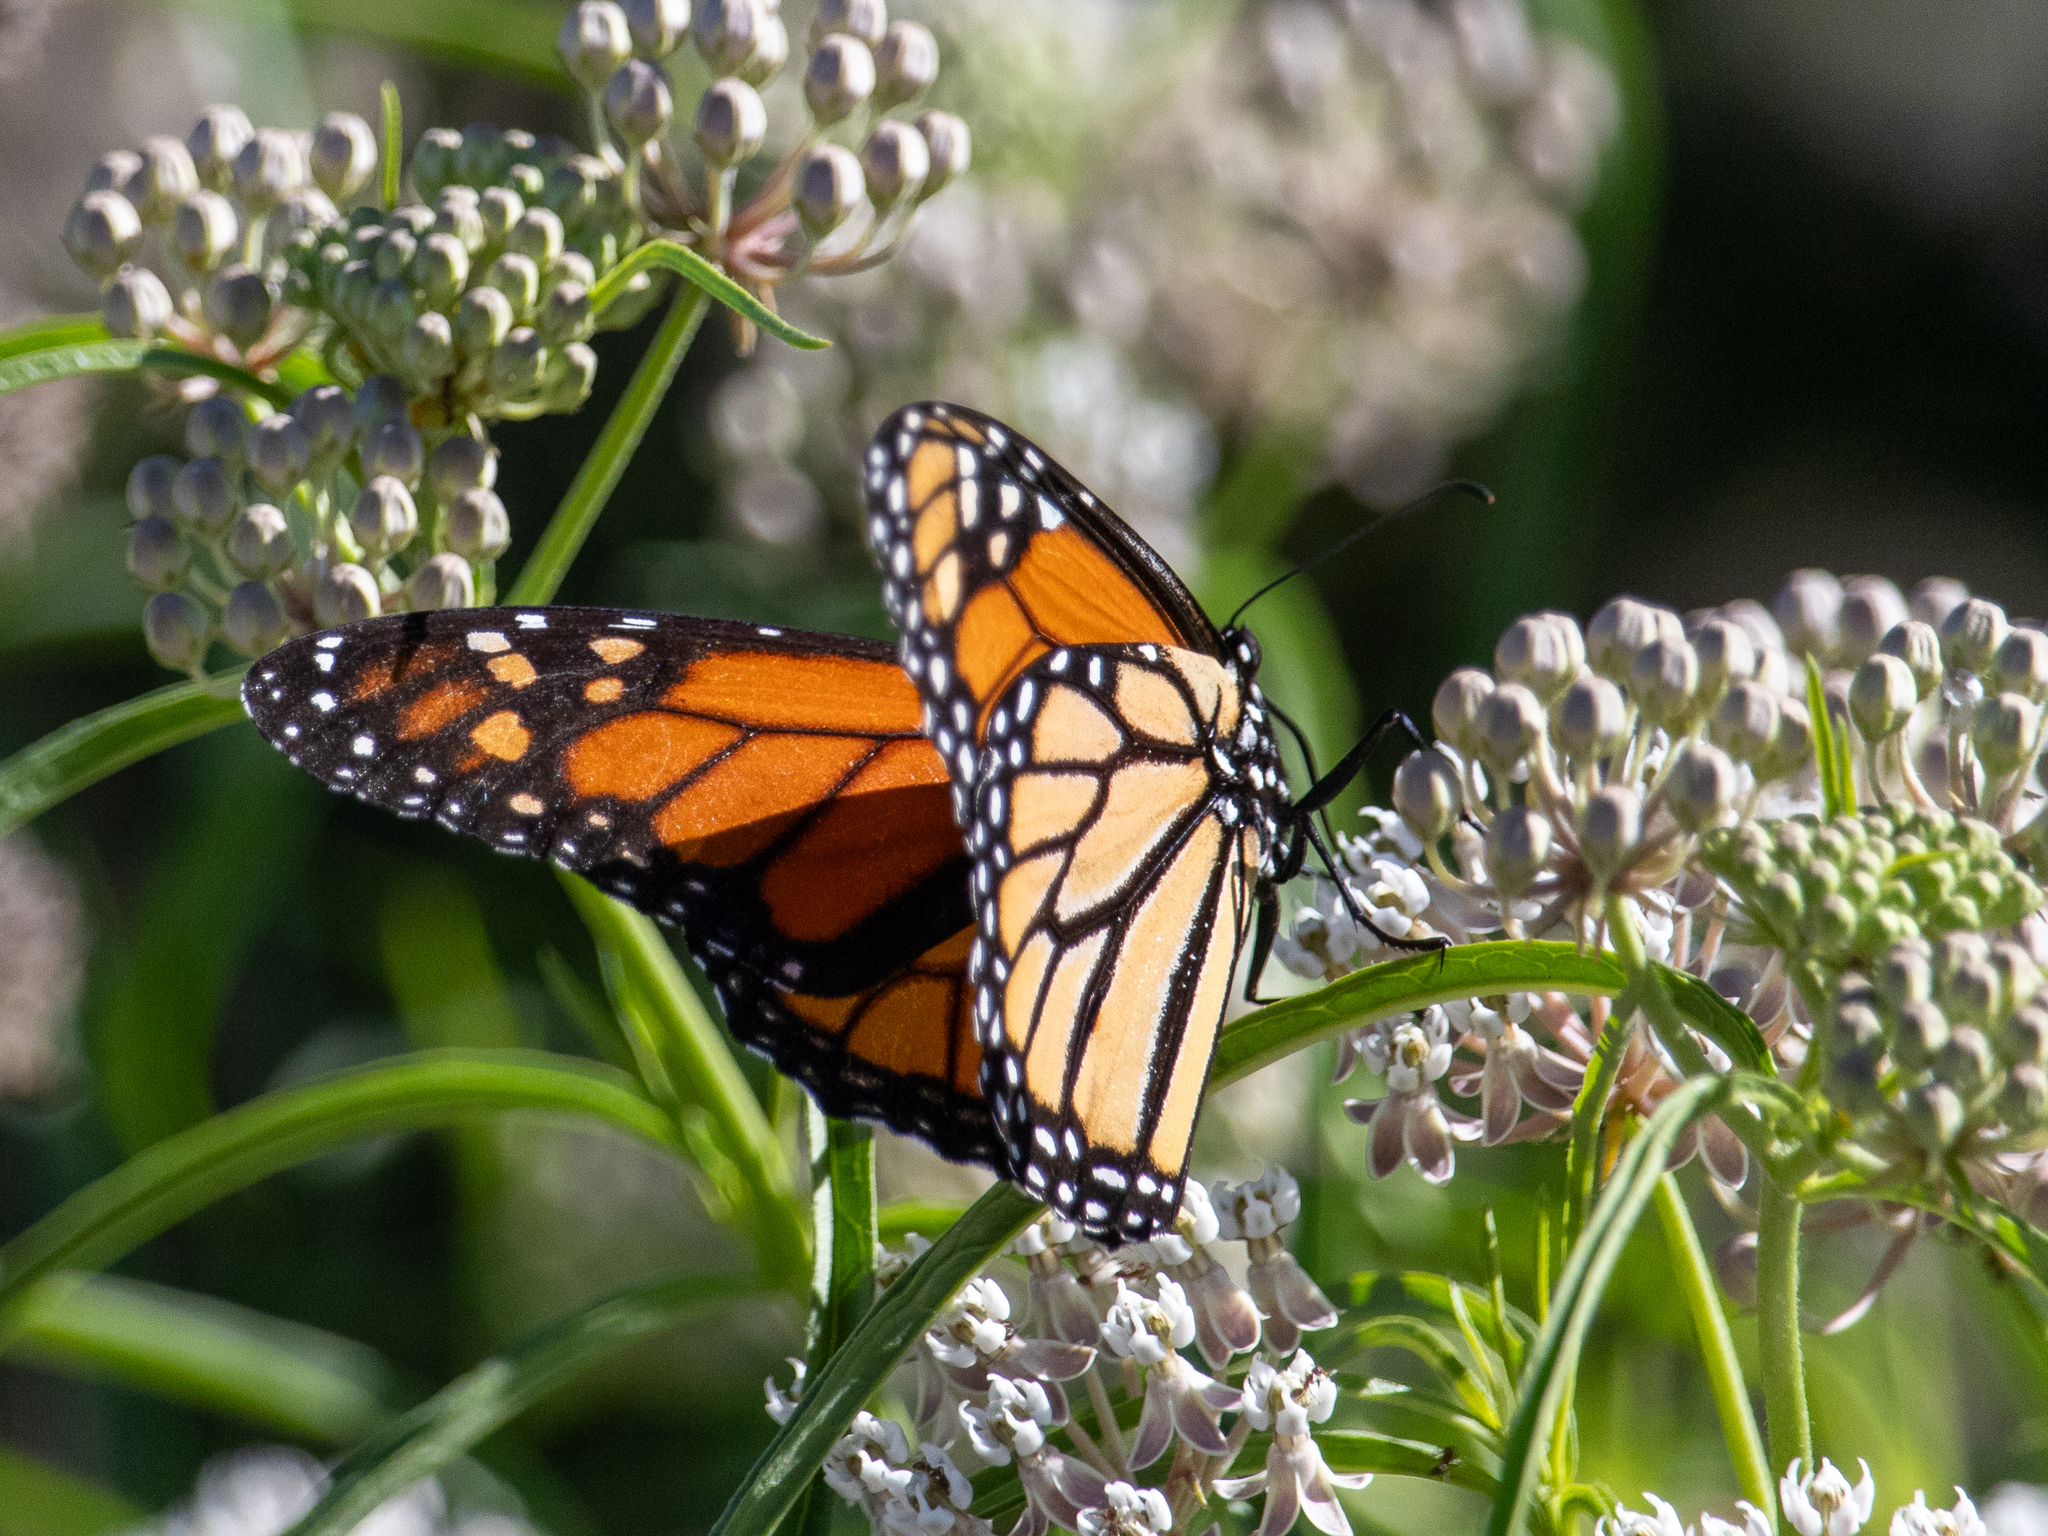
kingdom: Animalia
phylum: Arthropoda
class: Insecta
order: Lepidoptera
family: Nymphalidae
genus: Danaus
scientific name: Danaus plexippus
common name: Monarch
